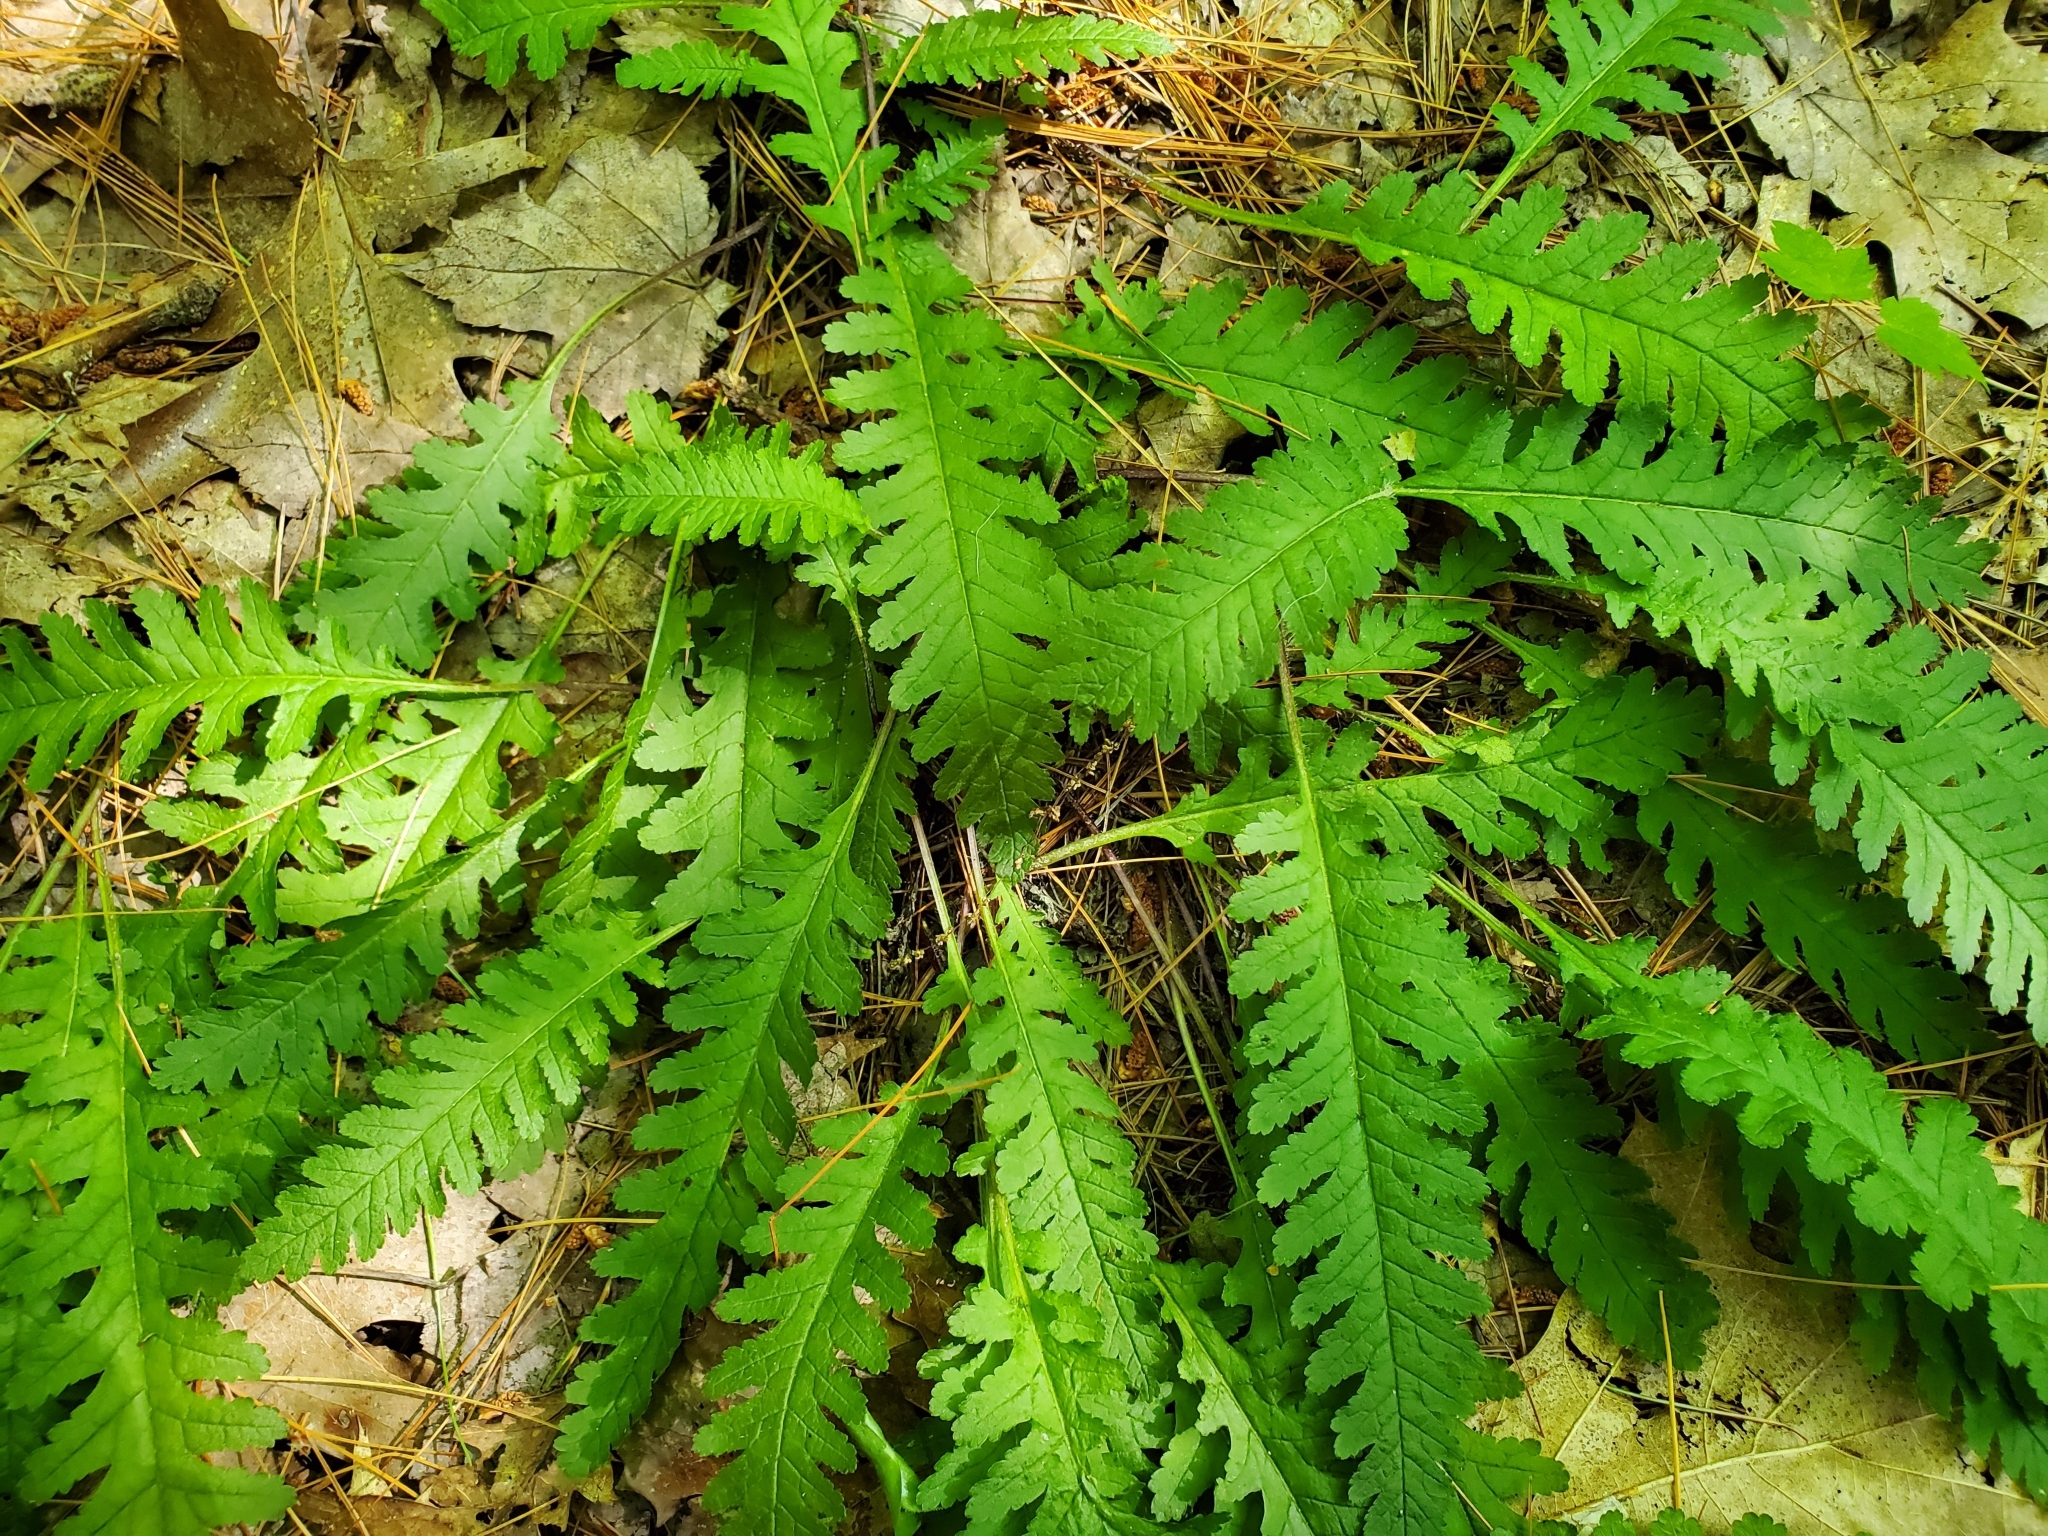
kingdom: Plantae
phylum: Tracheophyta
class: Magnoliopsida
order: Lamiales
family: Orobanchaceae
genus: Pedicularis
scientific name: Pedicularis canadensis
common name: Early lousewort
